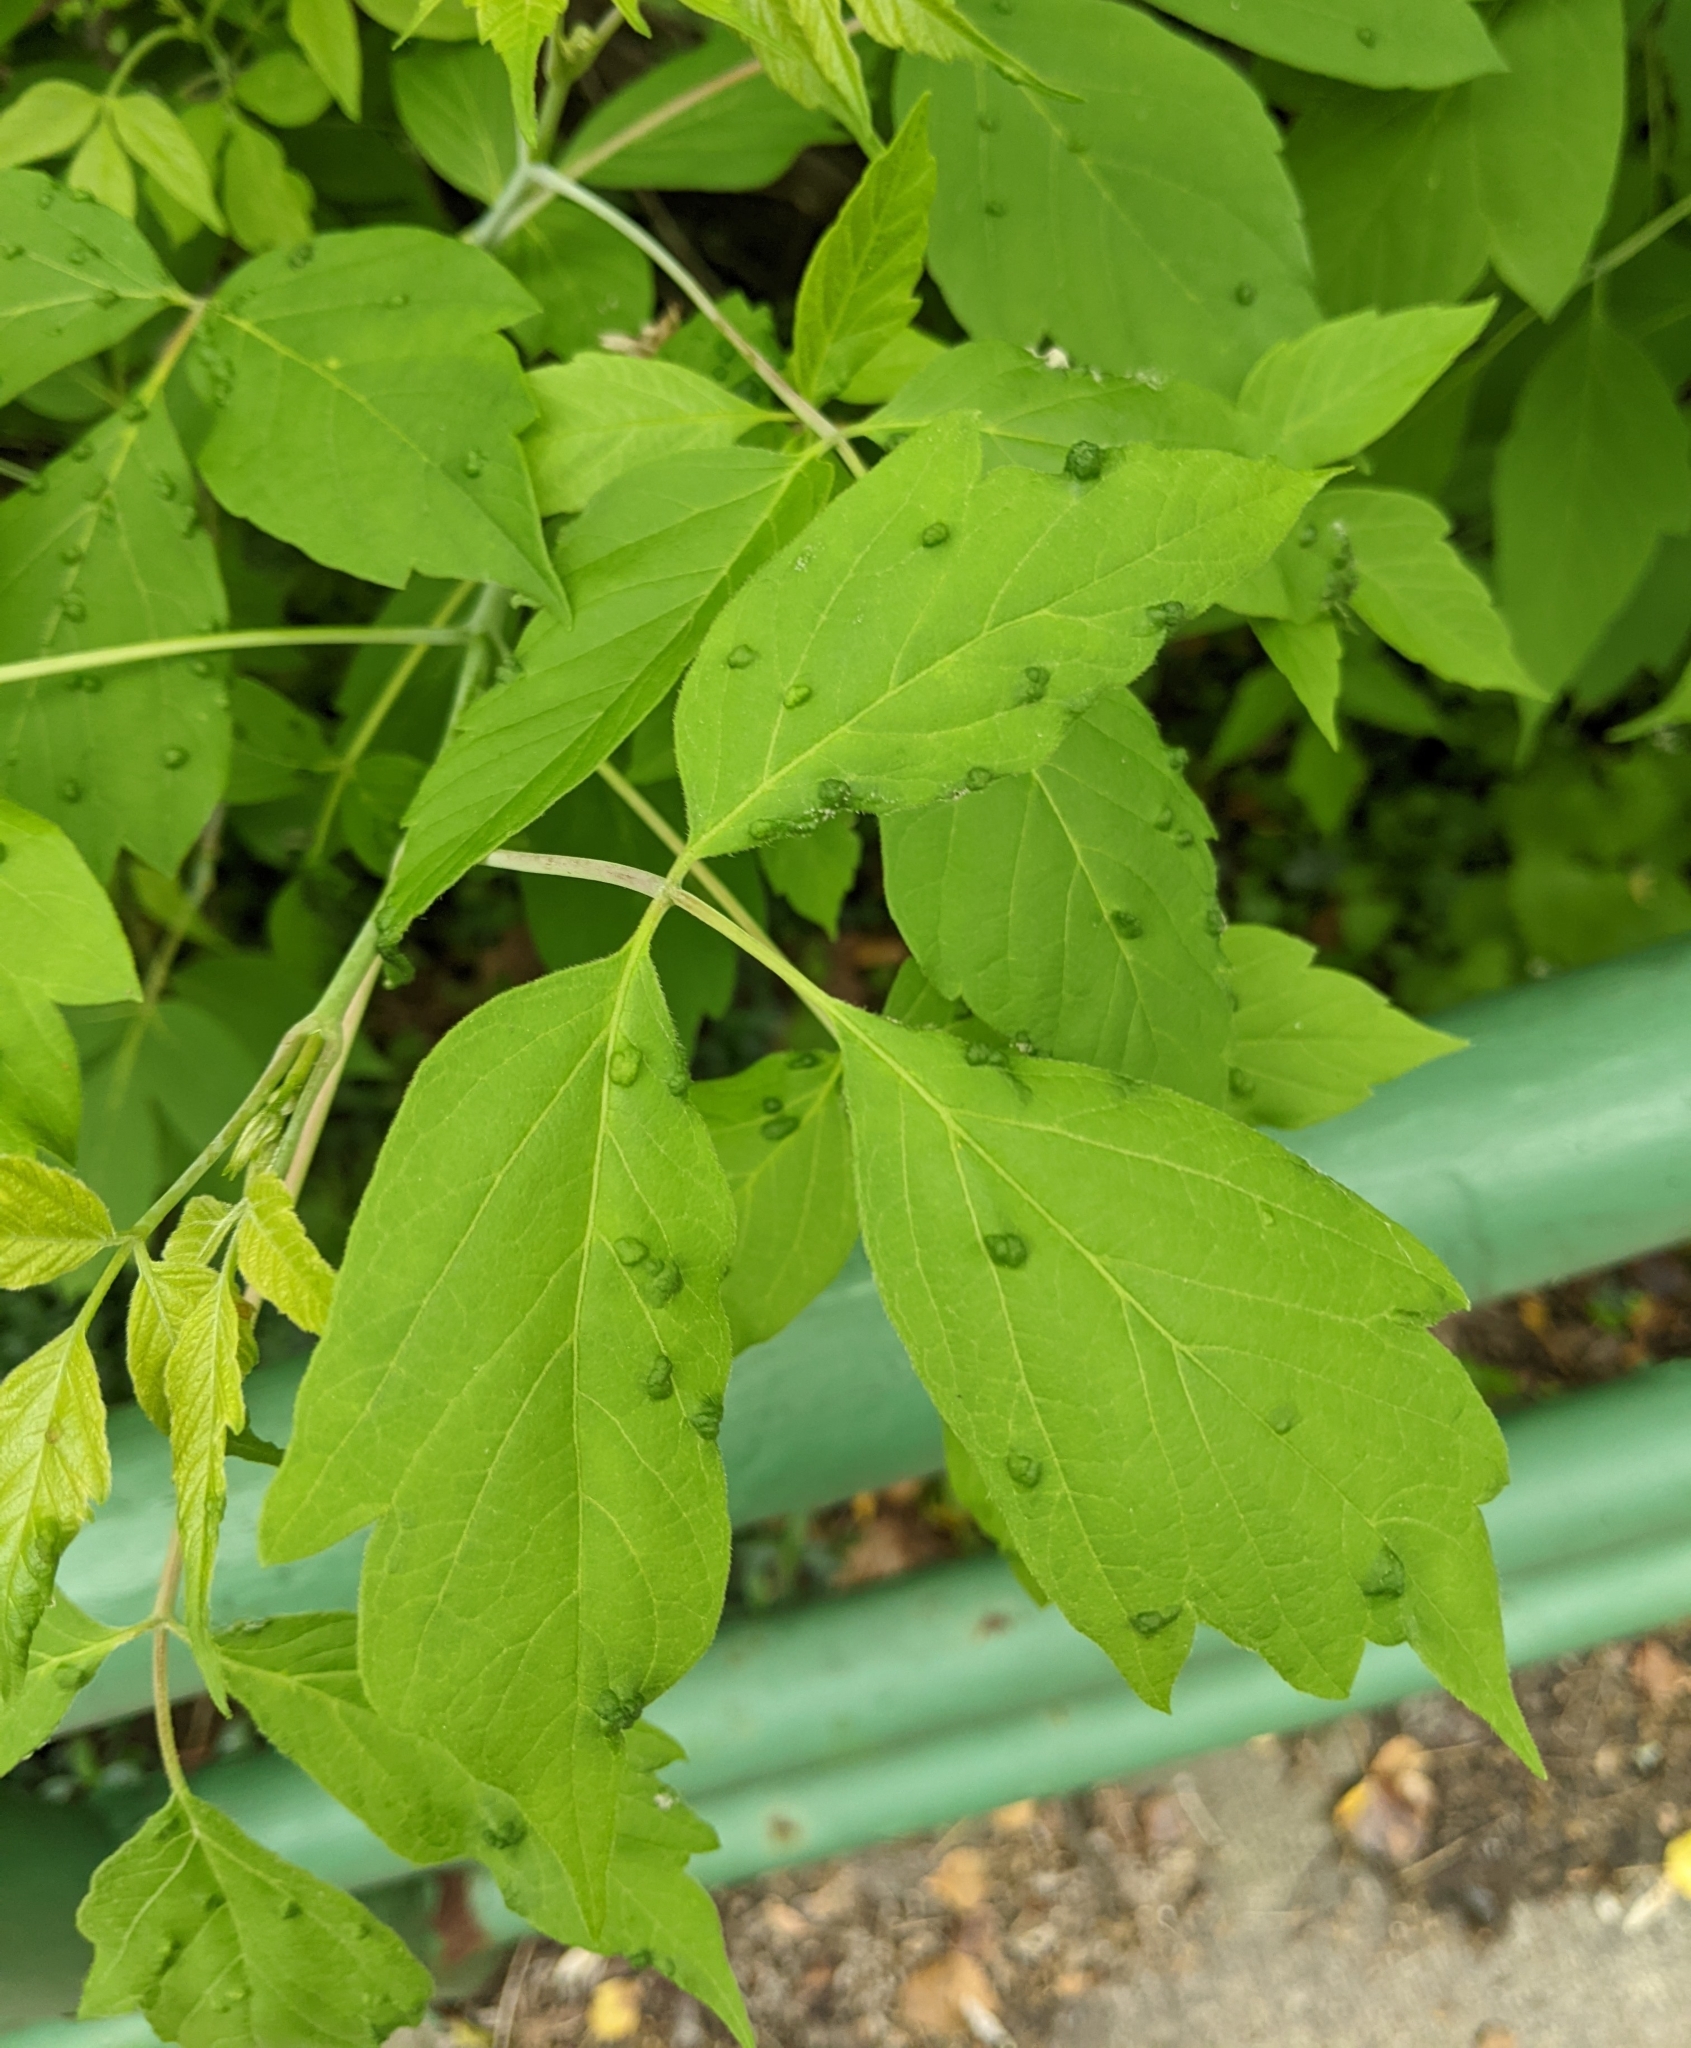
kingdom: Animalia
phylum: Arthropoda
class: Arachnida
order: Trombidiformes
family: Eriophyidae
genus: Aceria
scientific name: Aceria
